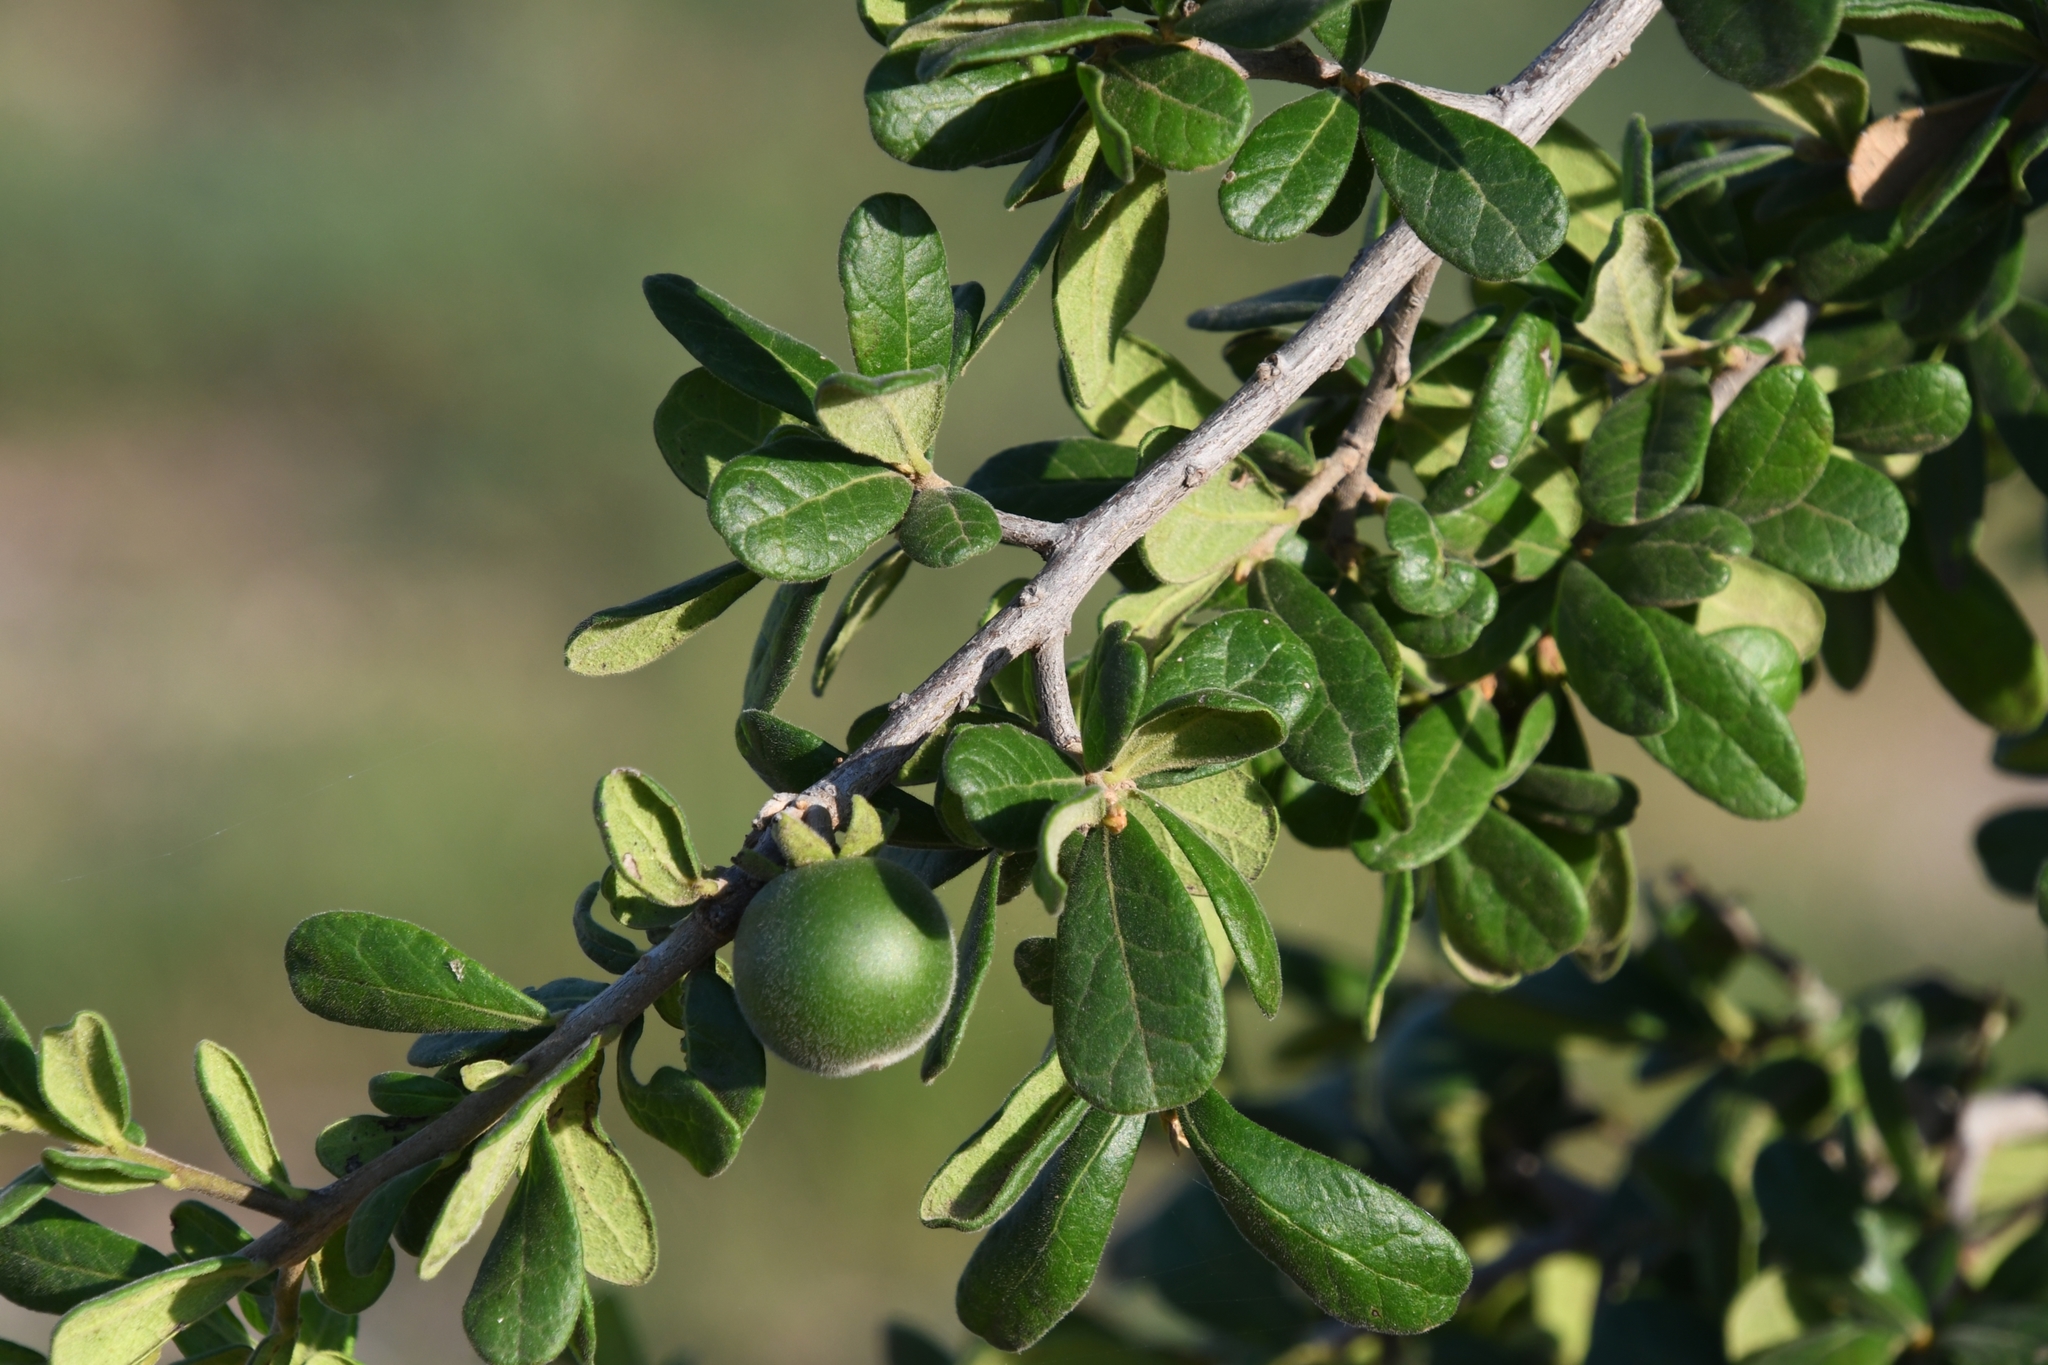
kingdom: Plantae
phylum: Tracheophyta
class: Magnoliopsida
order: Ericales
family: Ebenaceae
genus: Diospyros
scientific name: Diospyros texana
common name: Texas persimmon
